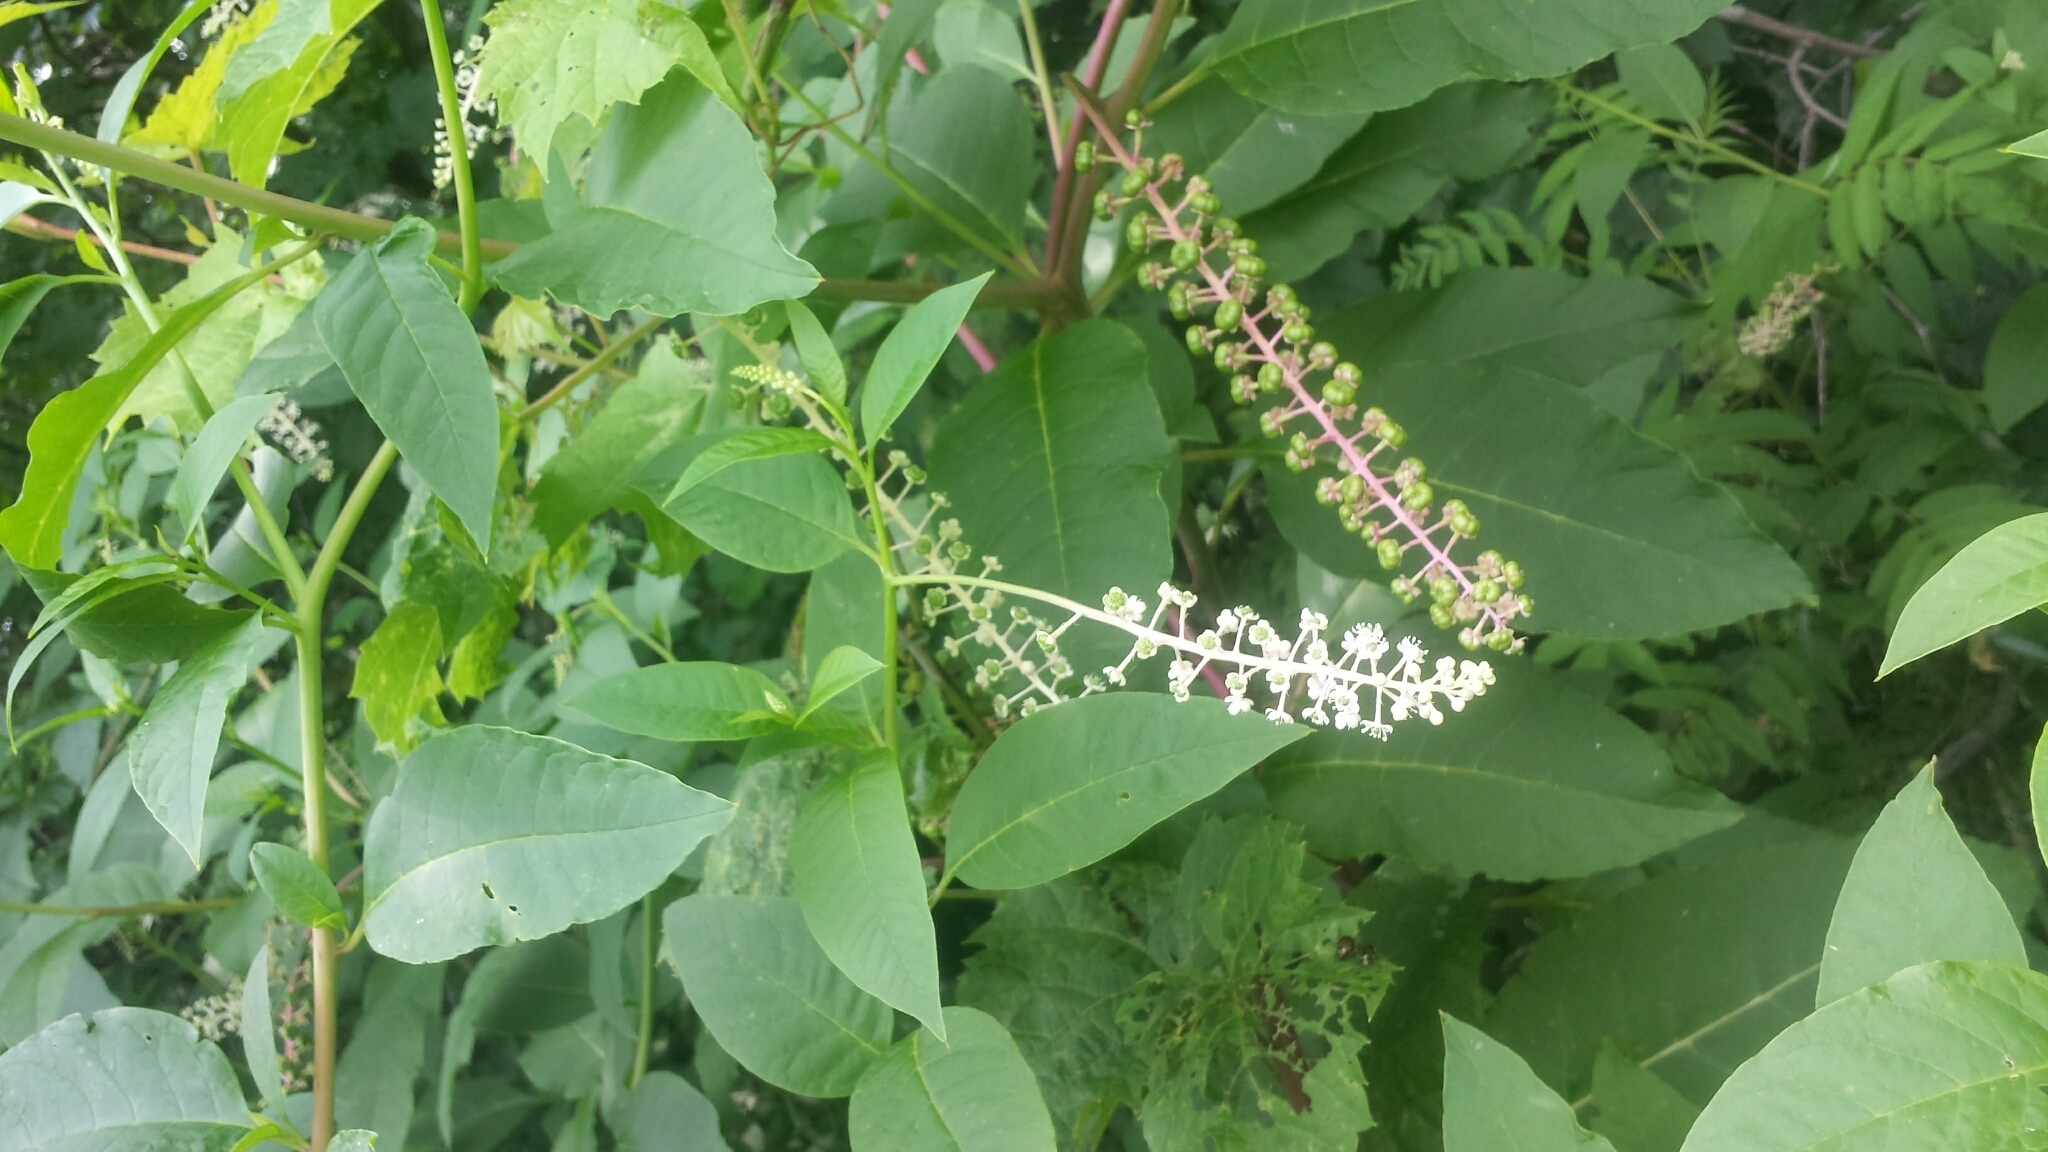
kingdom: Plantae
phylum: Tracheophyta
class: Magnoliopsida
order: Caryophyllales
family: Phytolaccaceae
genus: Phytolacca
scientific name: Phytolacca americana
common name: American pokeweed
